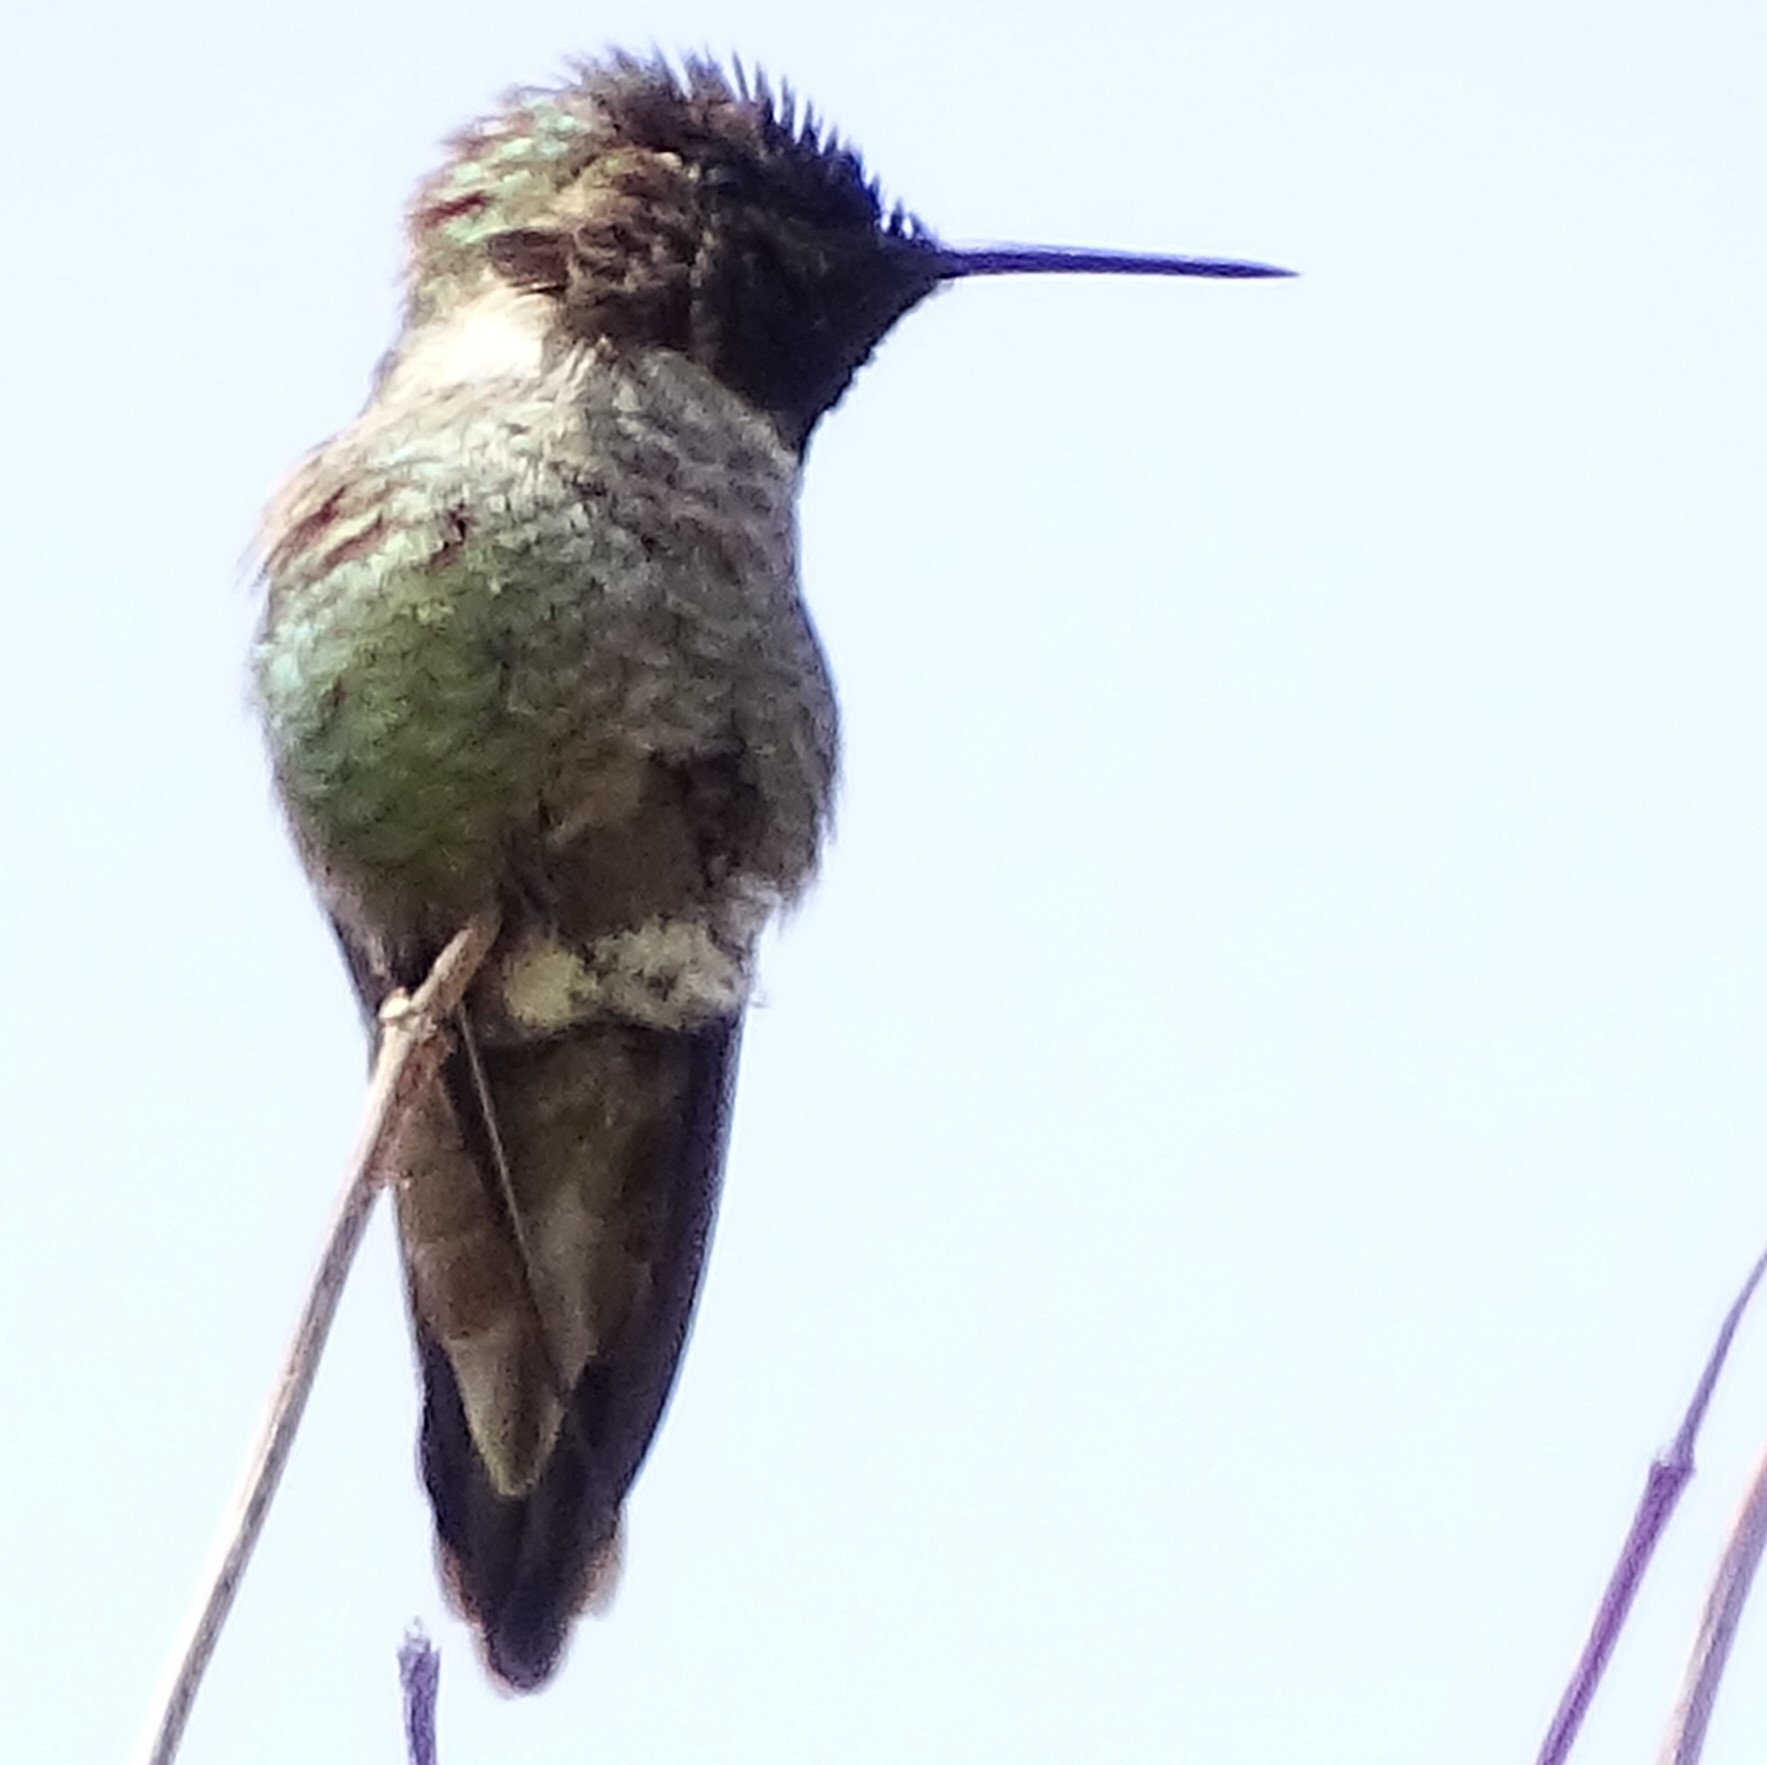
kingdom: Animalia
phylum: Chordata
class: Aves
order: Apodiformes
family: Trochilidae
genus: Calypte
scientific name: Calypte anna
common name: Anna's hummingbird
